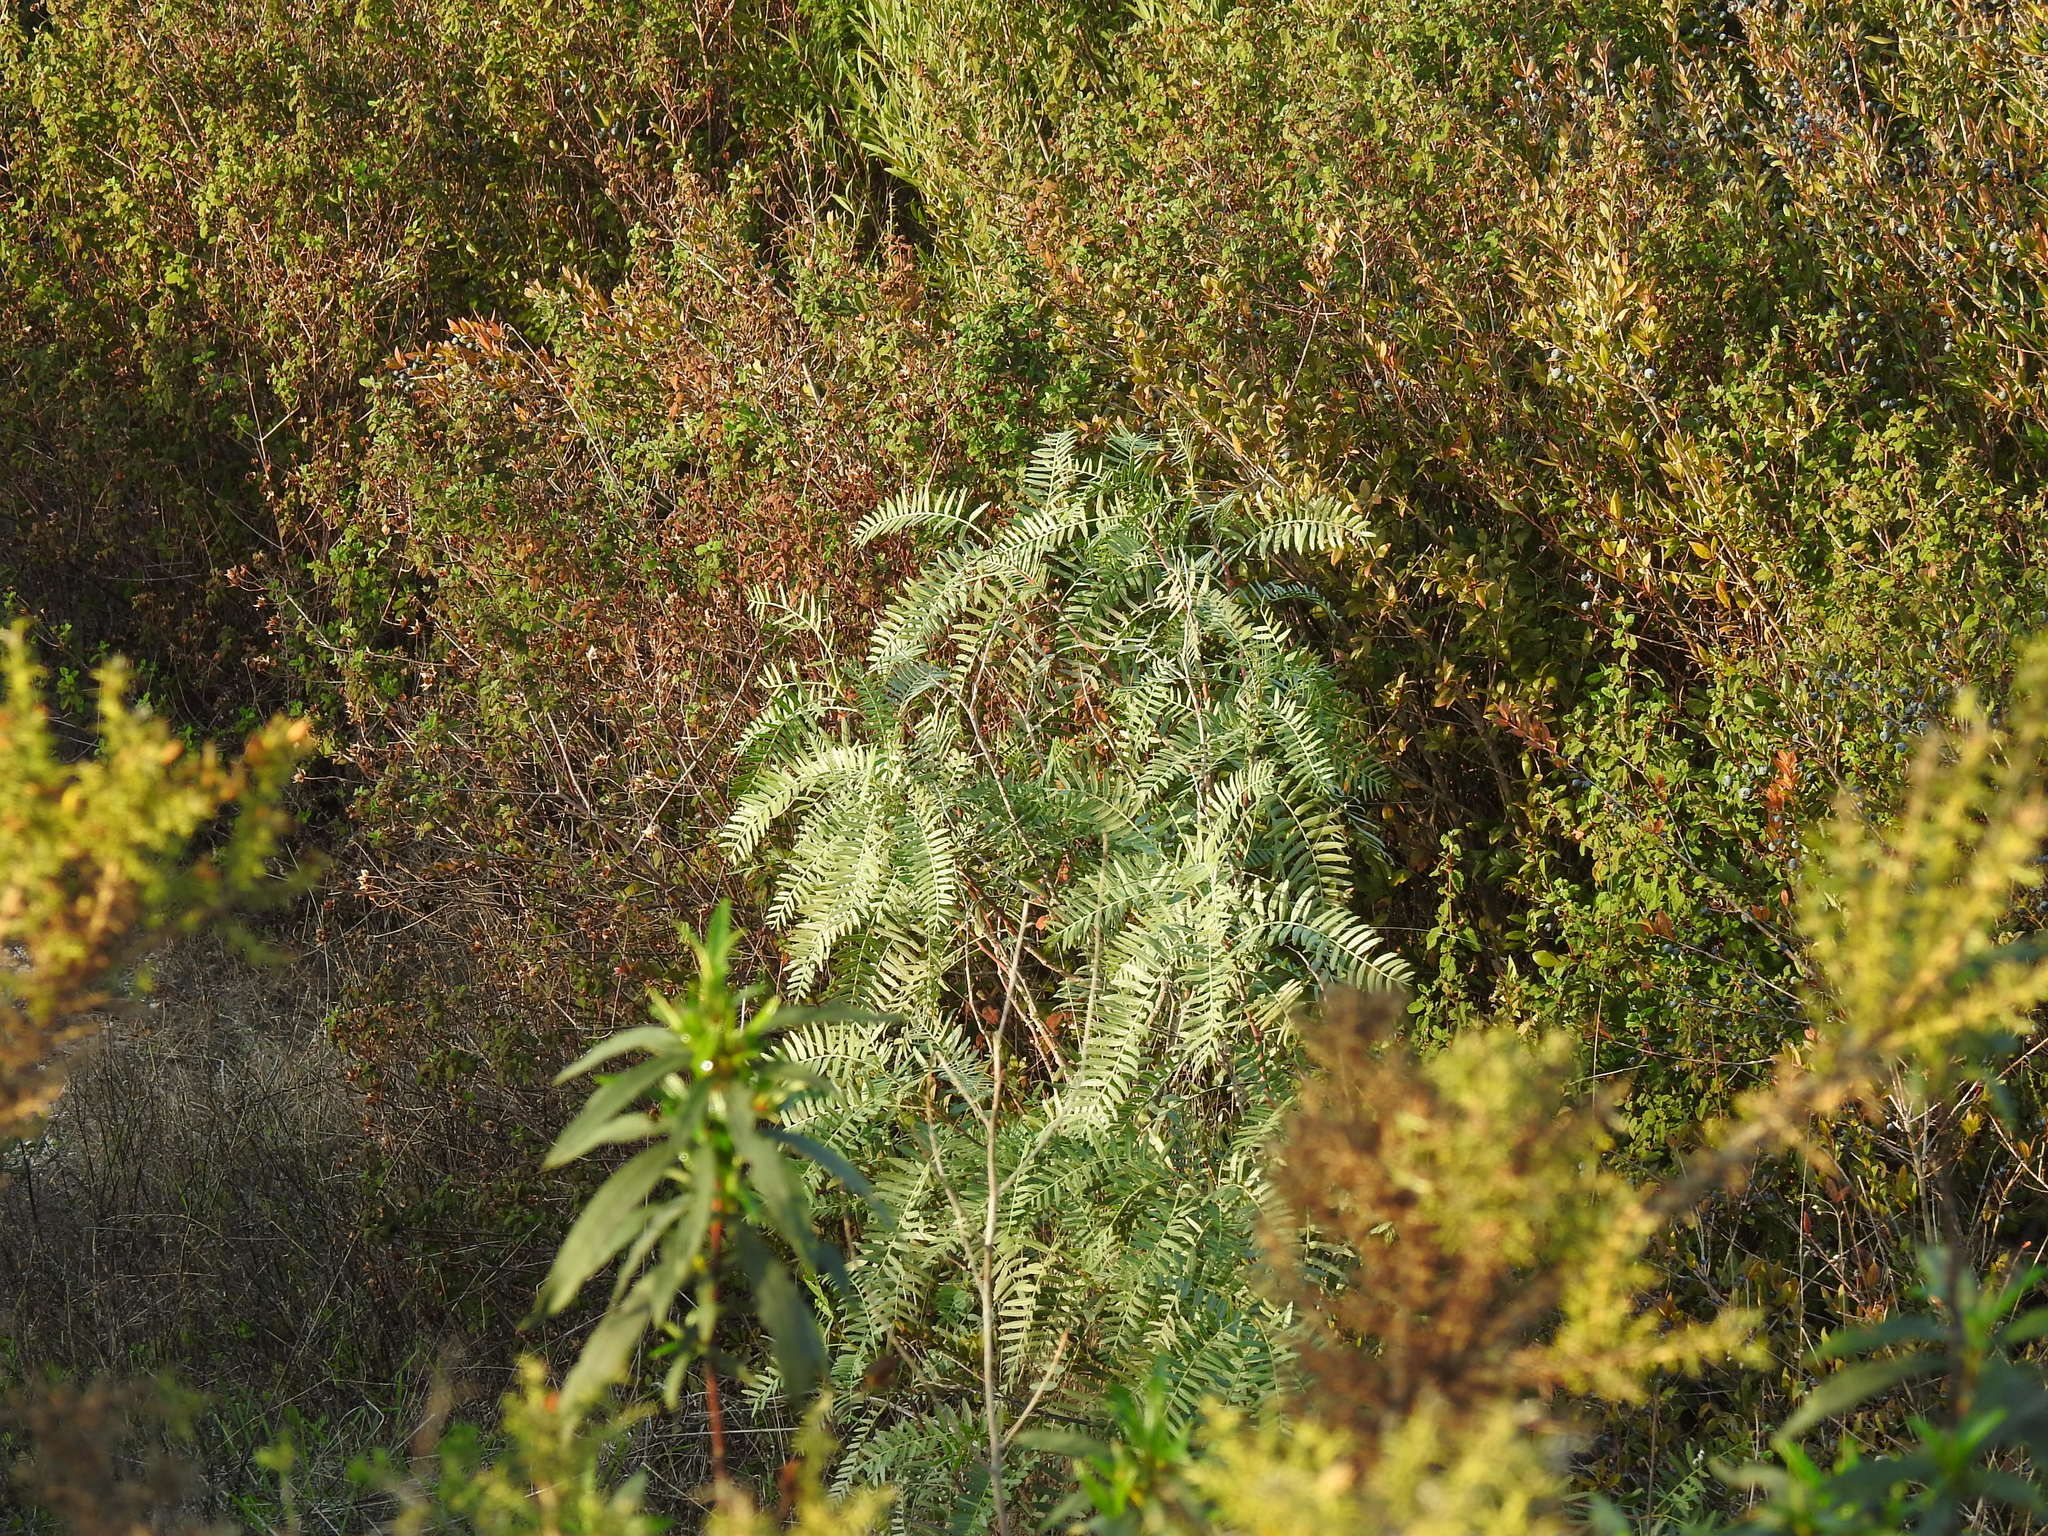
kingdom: Plantae
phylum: Tracheophyta
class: Magnoliopsida
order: Sapindales
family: Anacardiaceae
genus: Schinus
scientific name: Schinus molle
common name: Peruvian peppertree
